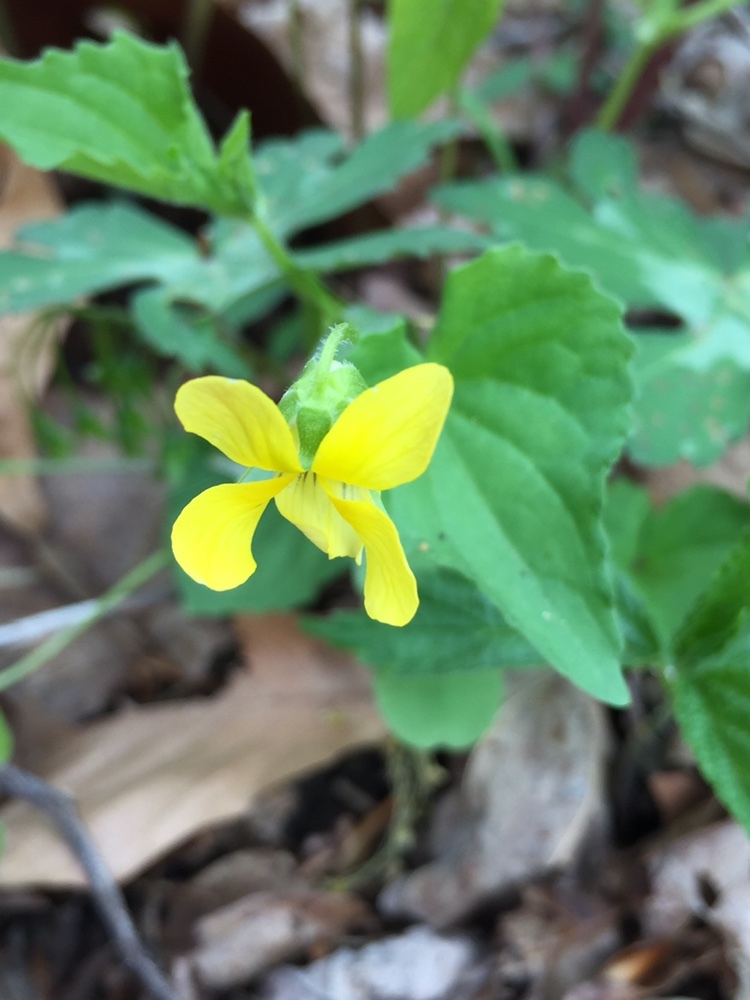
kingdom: Plantae
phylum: Tracheophyta
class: Magnoliopsida
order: Malpighiales
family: Violaceae
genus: Viola
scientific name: Viola eriocarpa
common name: Smooth yellow violet
